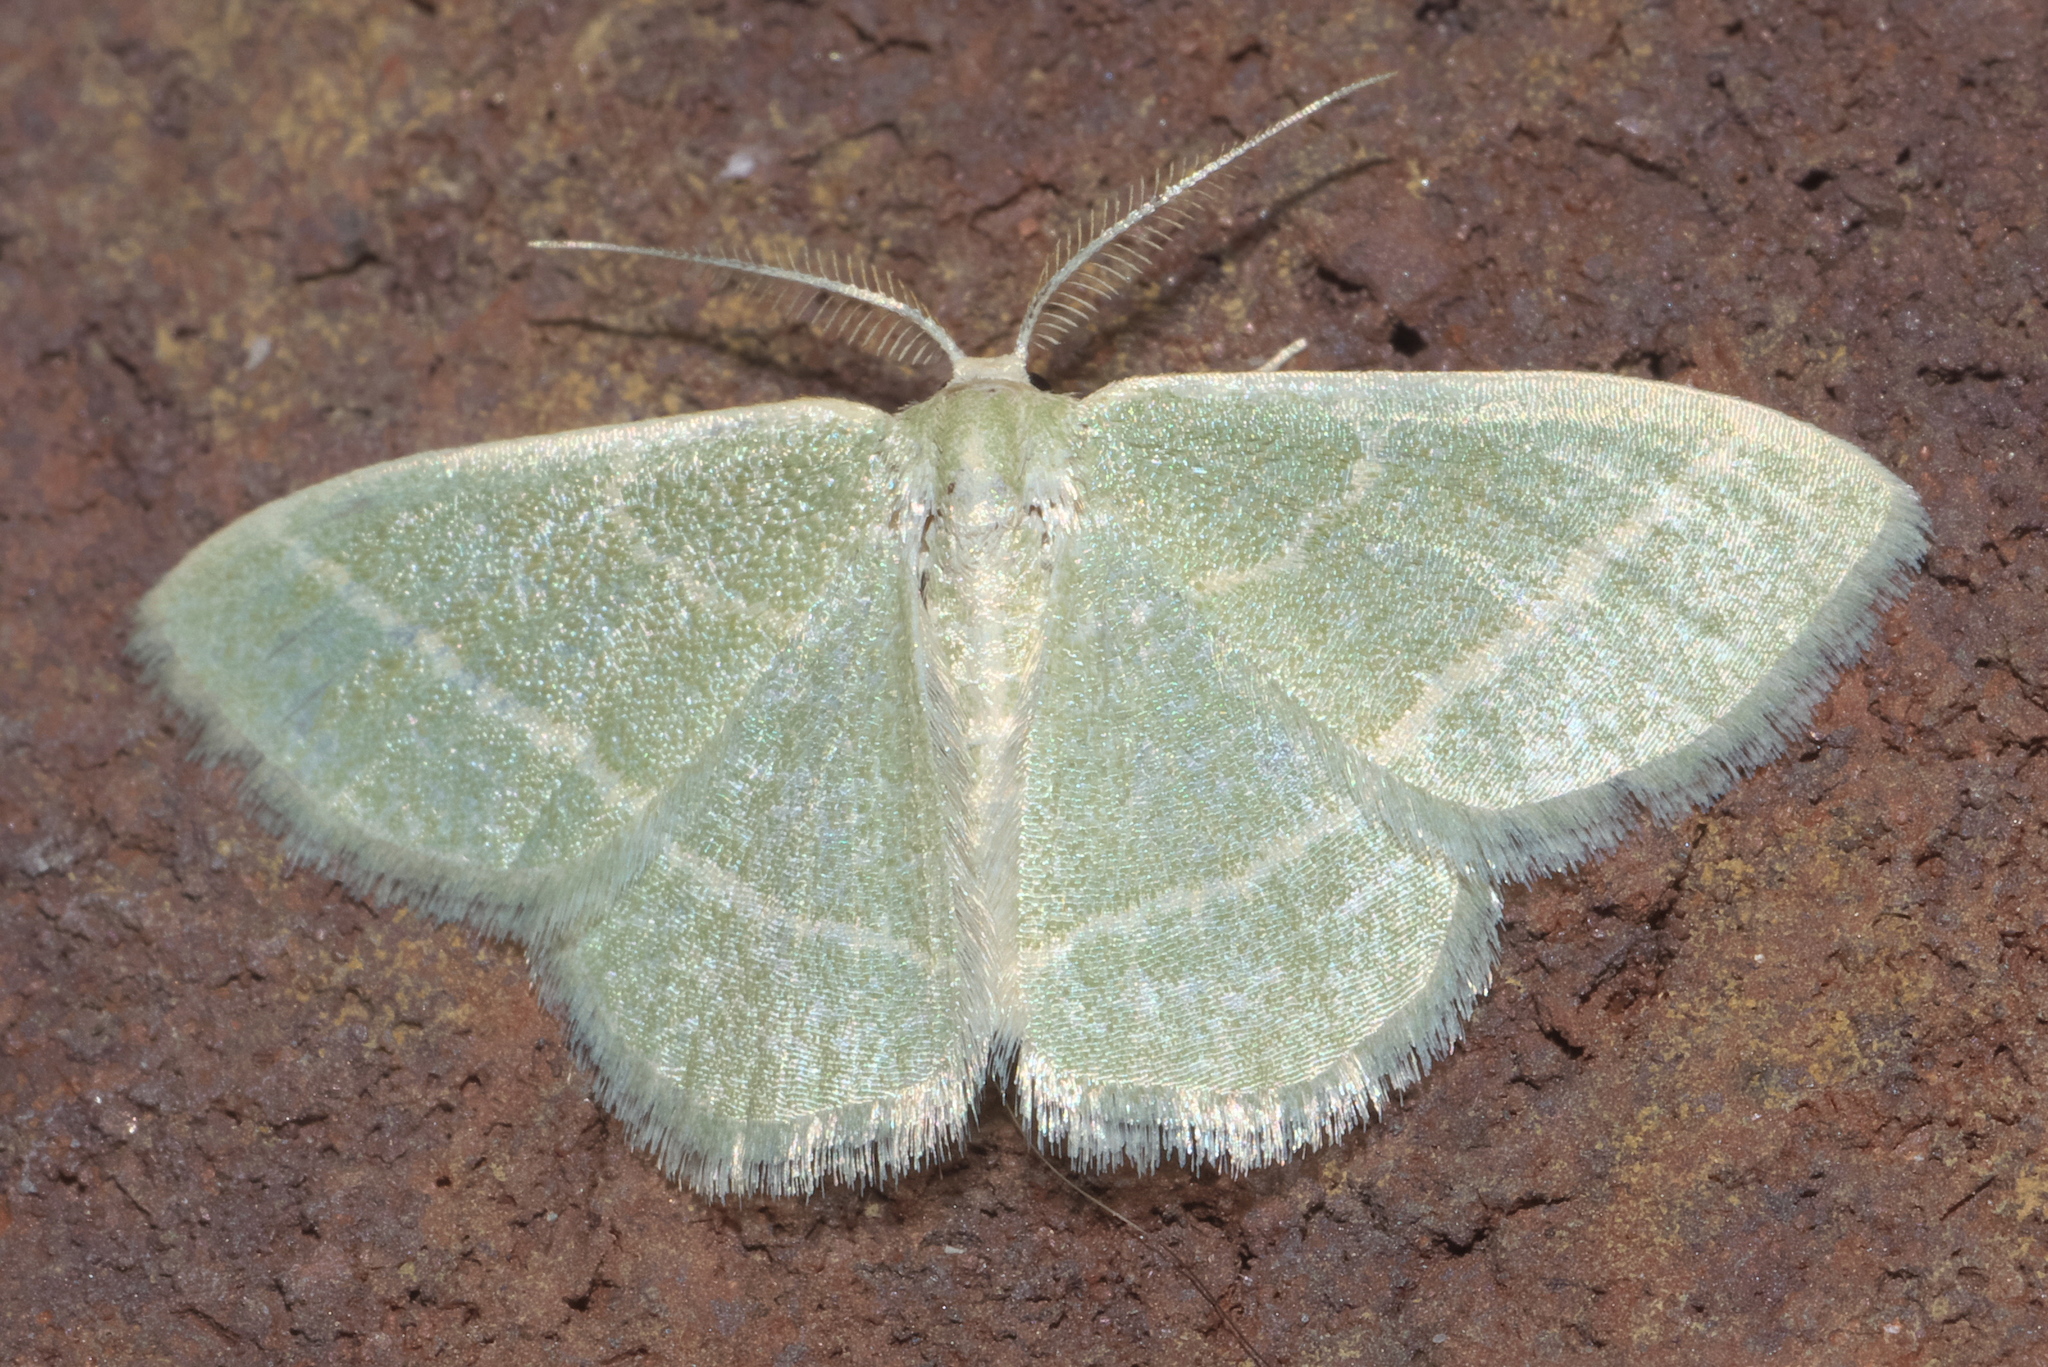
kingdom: Animalia
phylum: Arthropoda
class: Insecta
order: Lepidoptera
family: Geometridae
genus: Chlorochlamys
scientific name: Chlorochlamys chloroleucaria
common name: Blackberry looper
